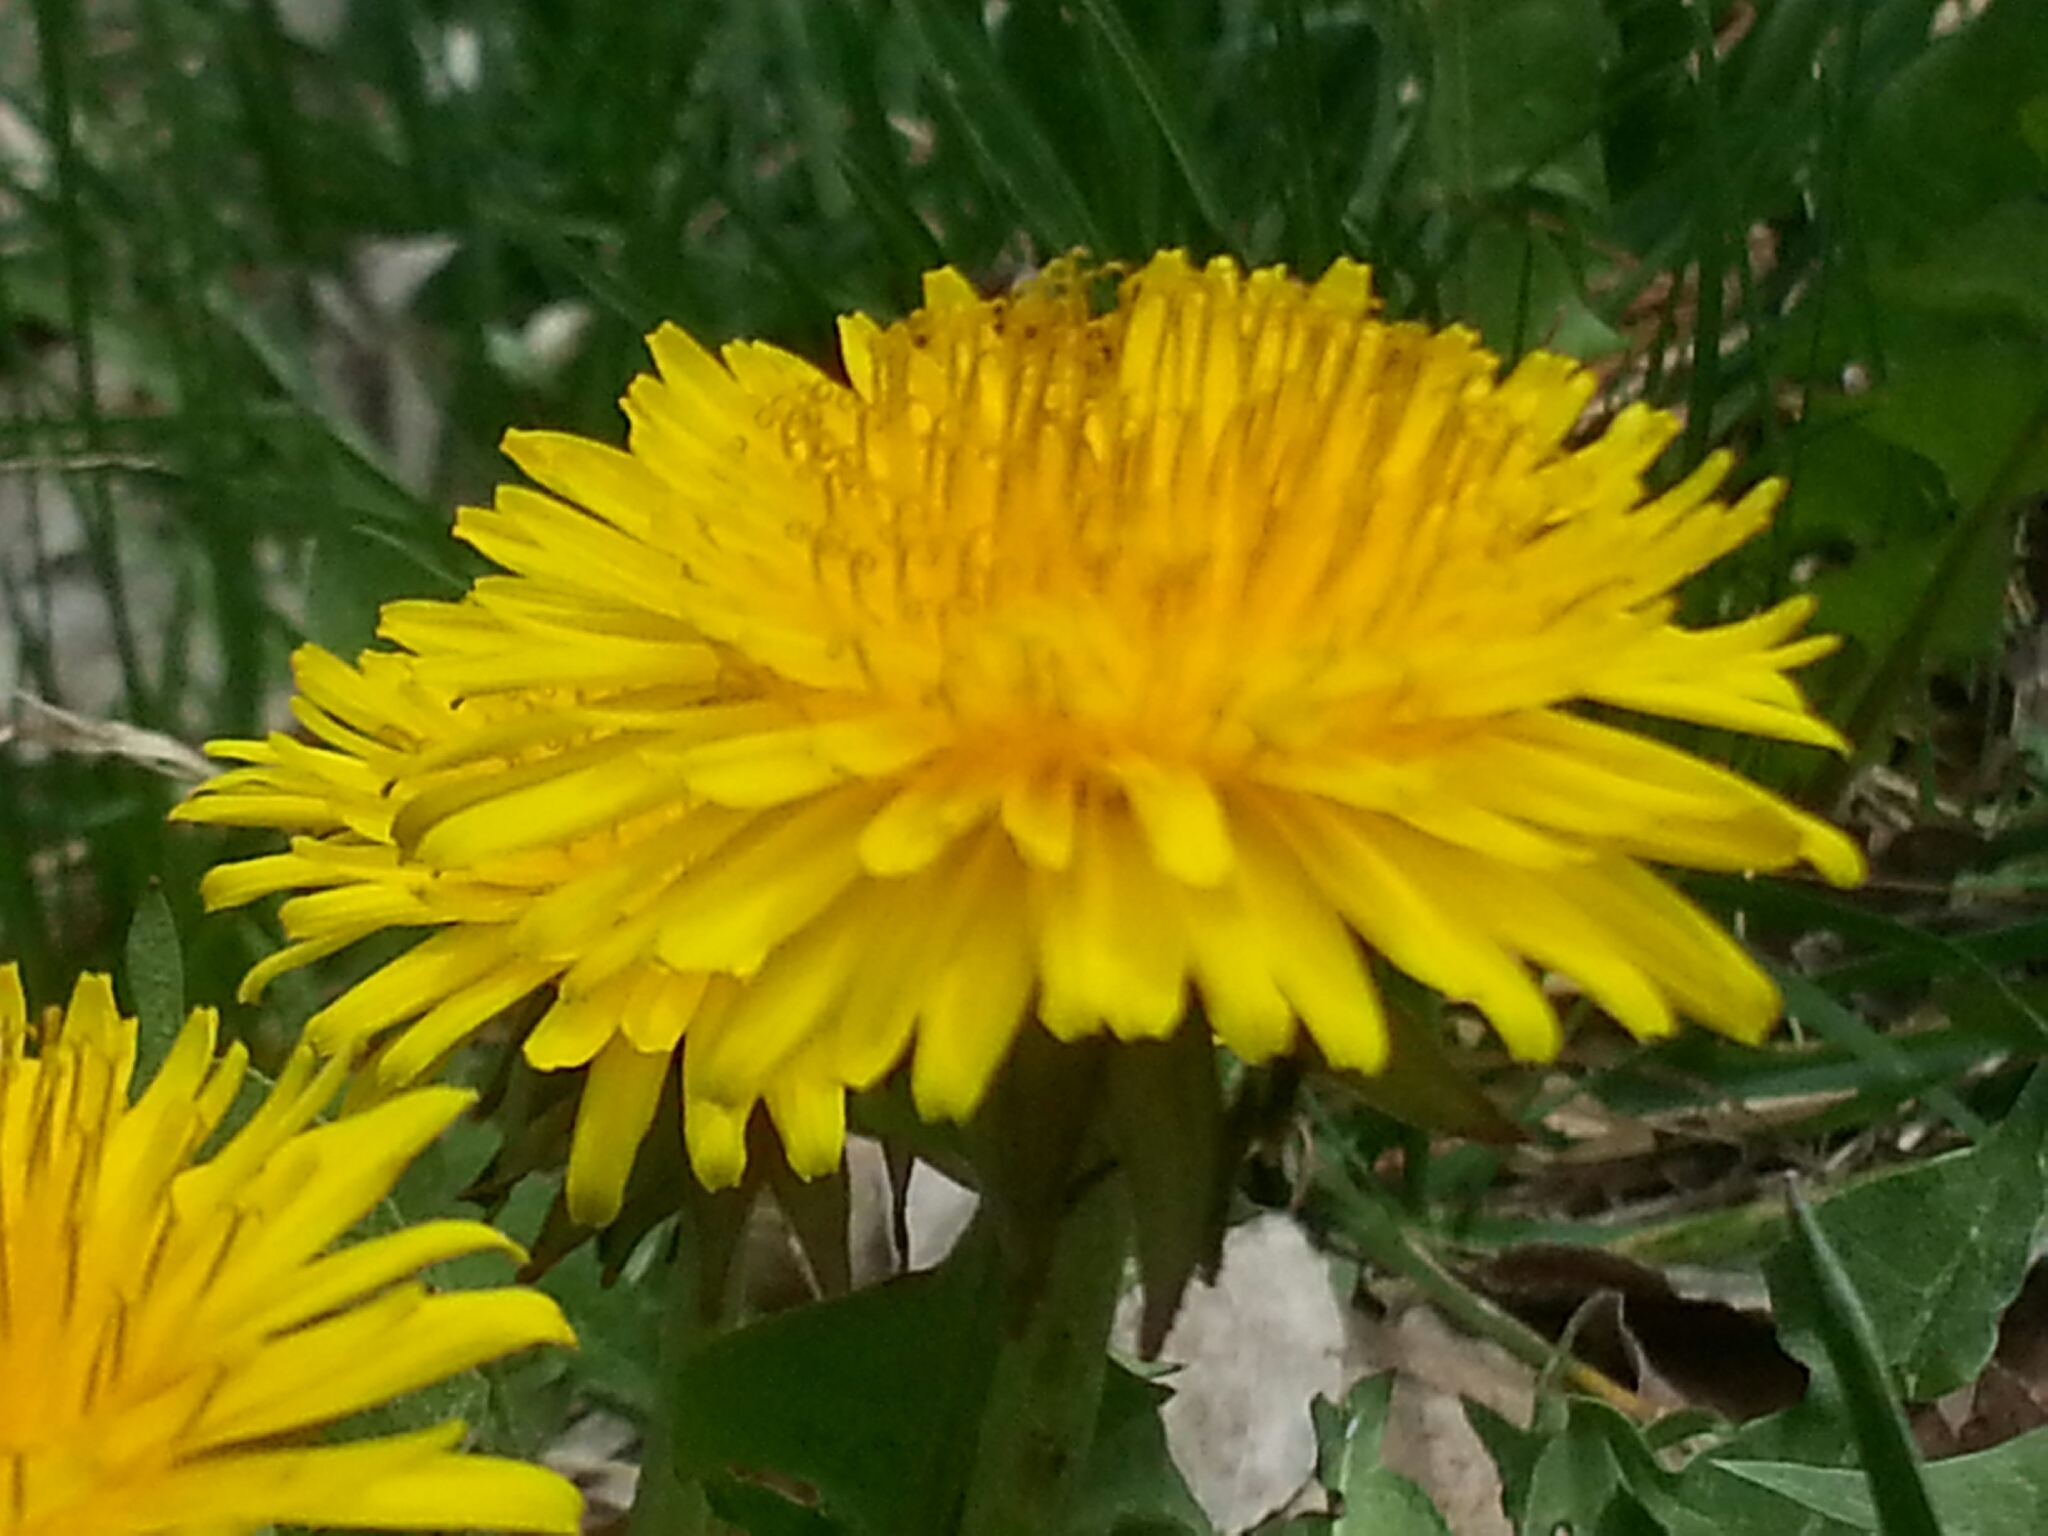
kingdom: Plantae
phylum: Tracheophyta
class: Magnoliopsida
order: Asterales
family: Asteraceae
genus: Taraxacum
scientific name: Taraxacum officinale
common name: Common dandelion
